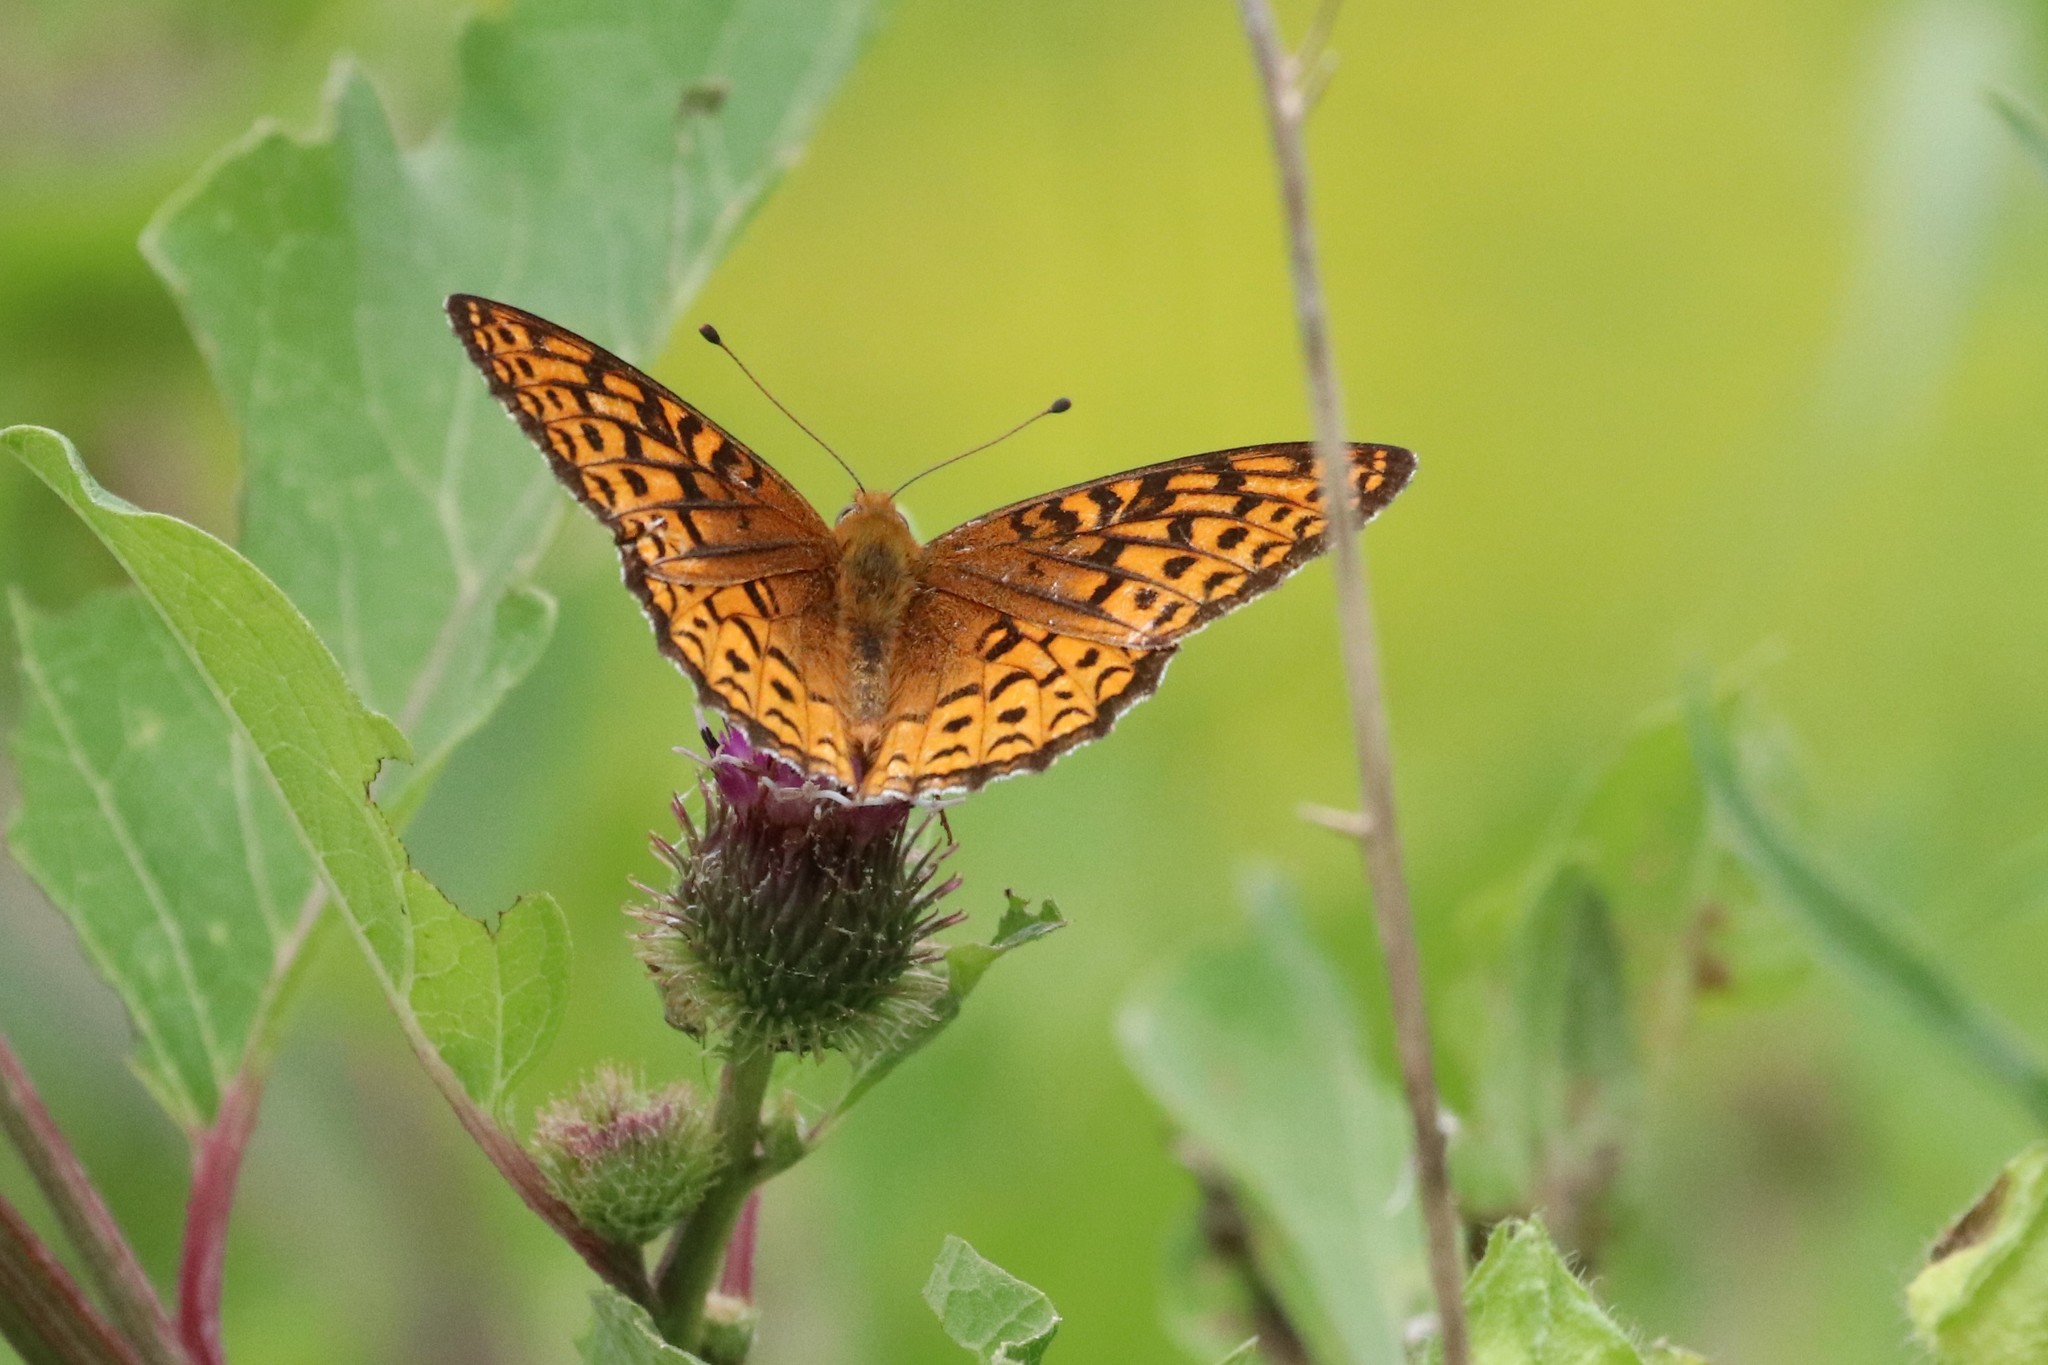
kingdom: Animalia
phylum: Arthropoda
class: Insecta
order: Lepidoptera
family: Nymphalidae
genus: Speyeria
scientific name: Speyeria atlantis
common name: Atlantis fritillary
